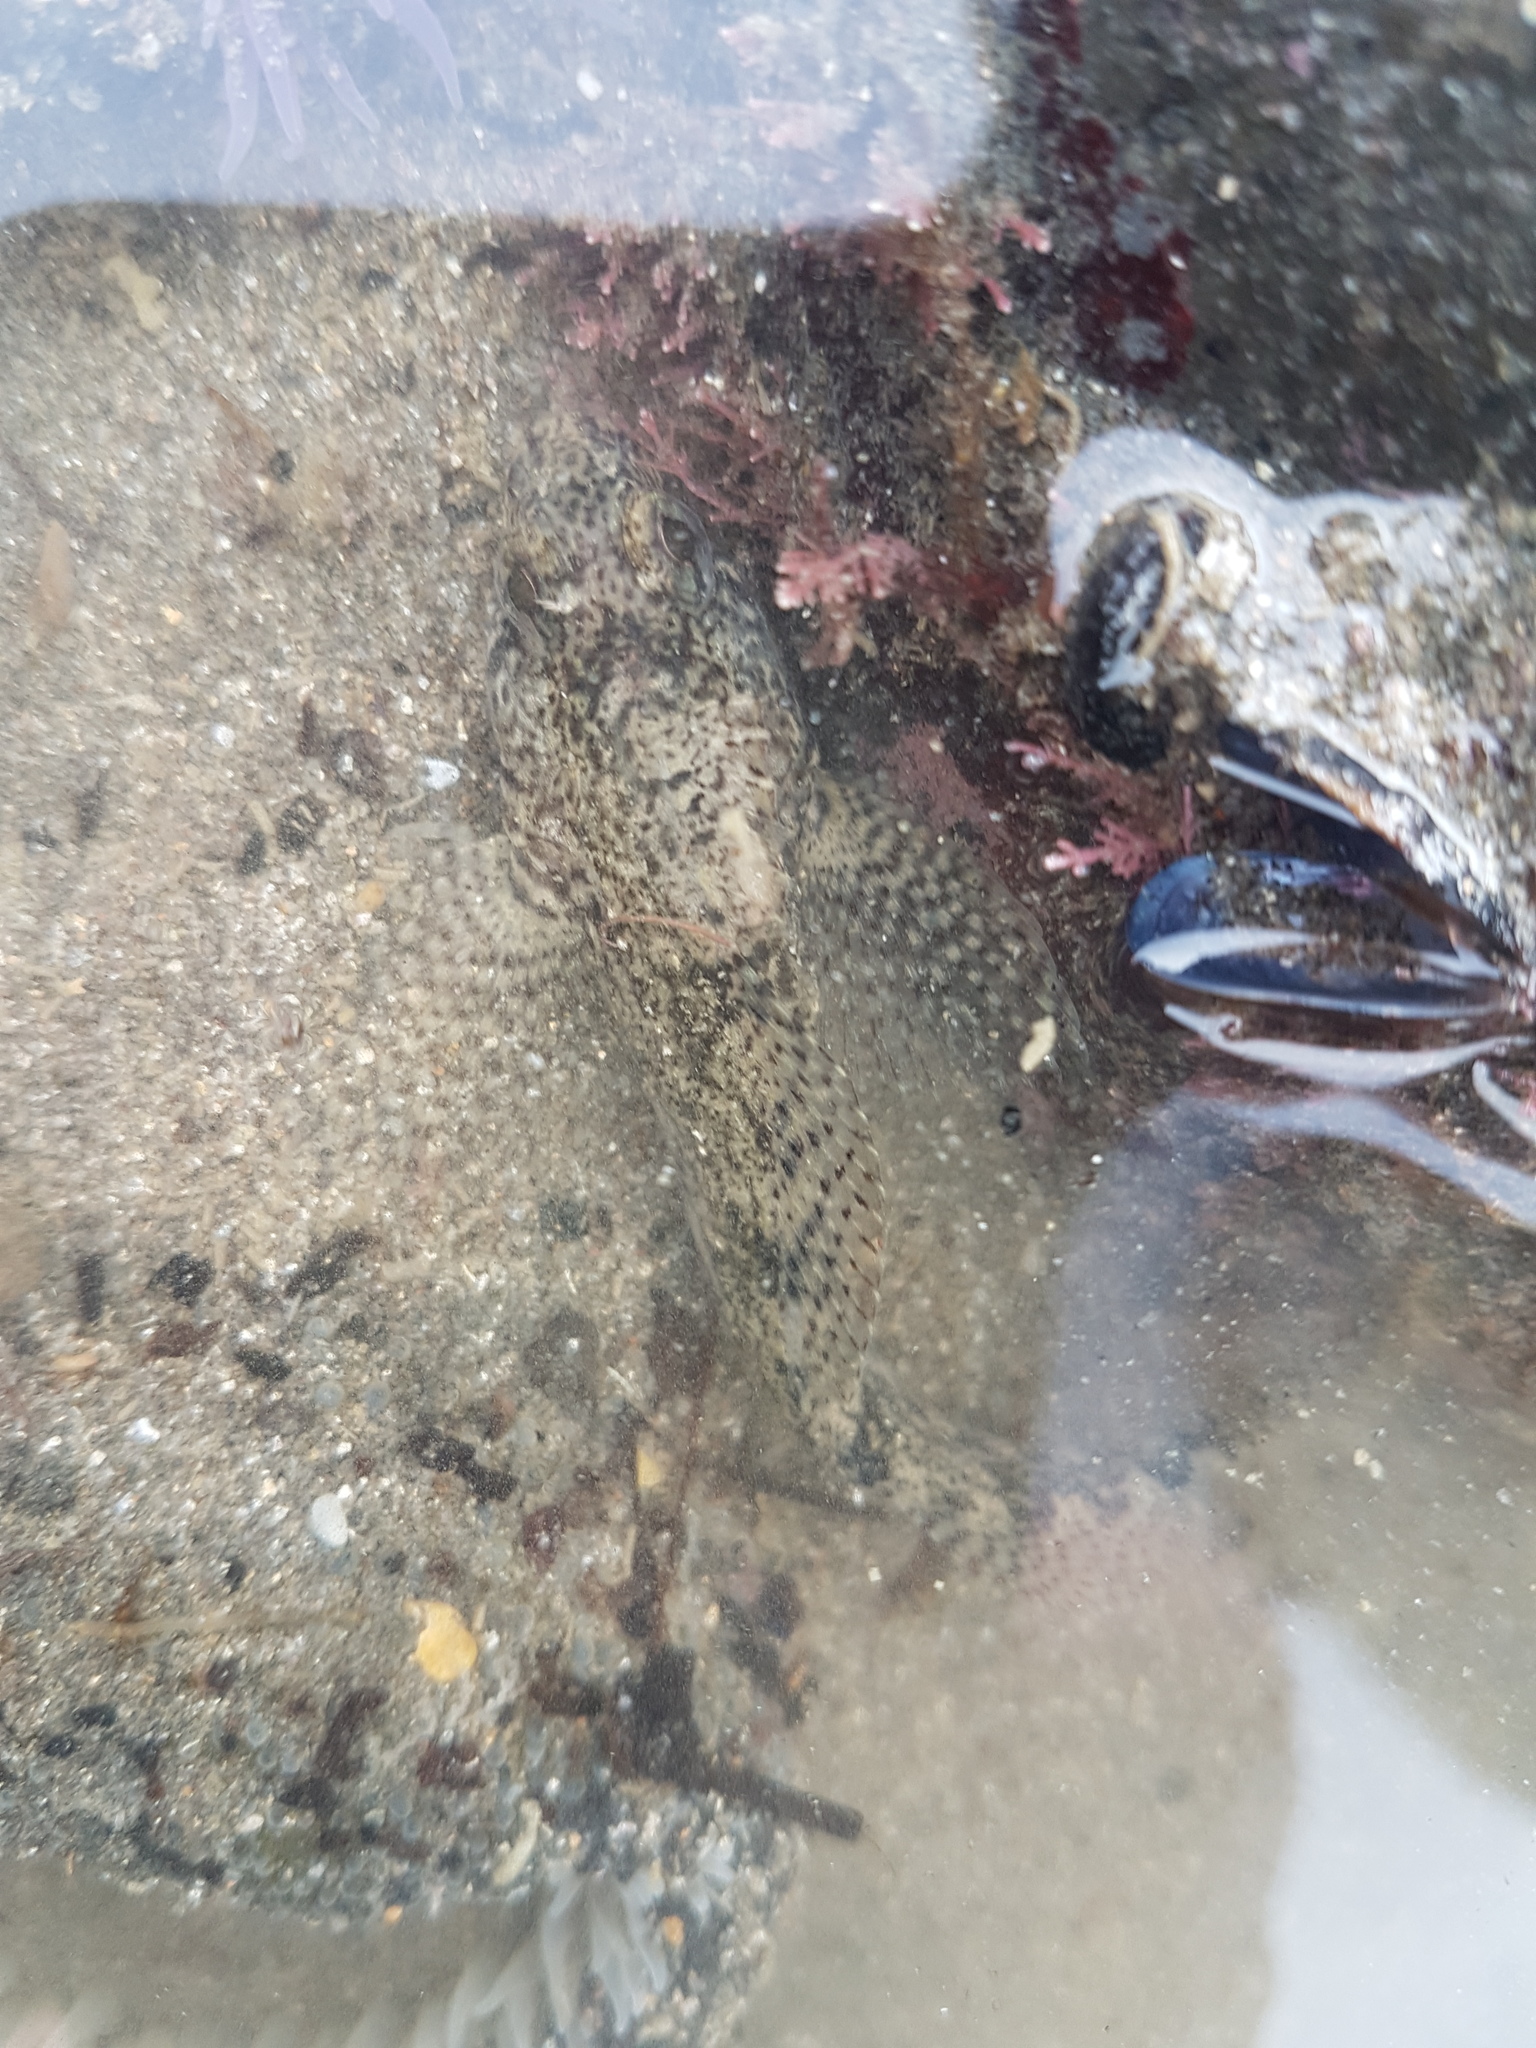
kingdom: Animalia
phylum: Chordata
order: Perciformes
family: Tripterygiidae
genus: Forsterygion
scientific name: Forsterygion capito
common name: Spotted robust triplefin
